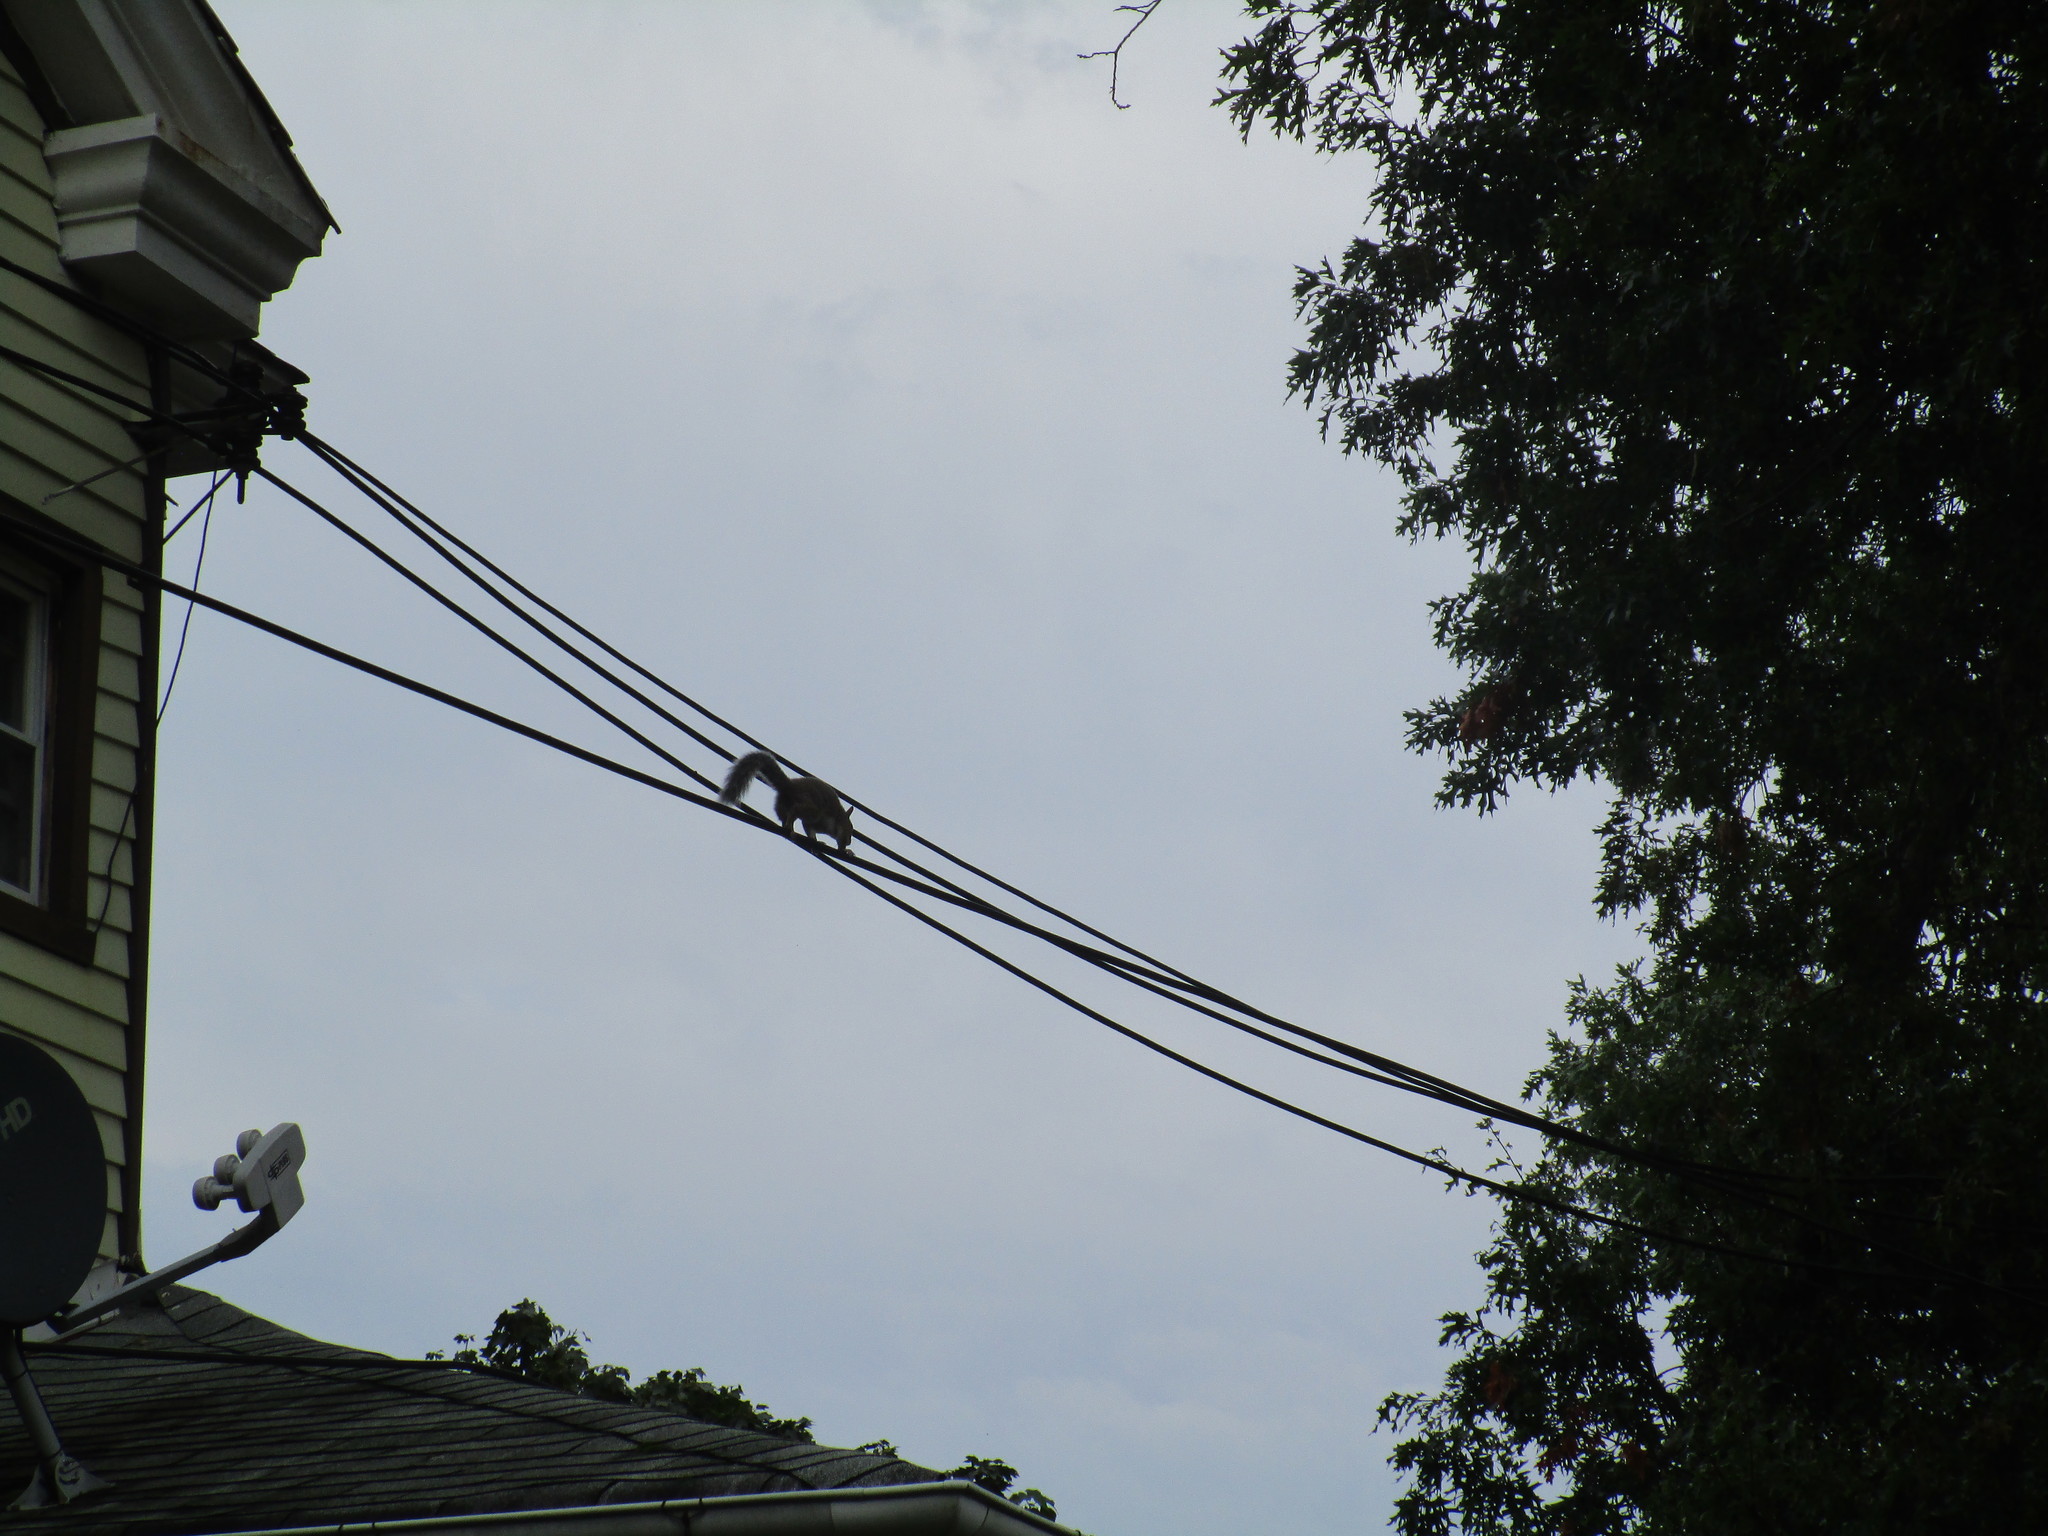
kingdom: Animalia
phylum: Chordata
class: Mammalia
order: Rodentia
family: Sciuridae
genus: Sciurus
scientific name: Sciurus carolinensis
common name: Eastern gray squirrel
